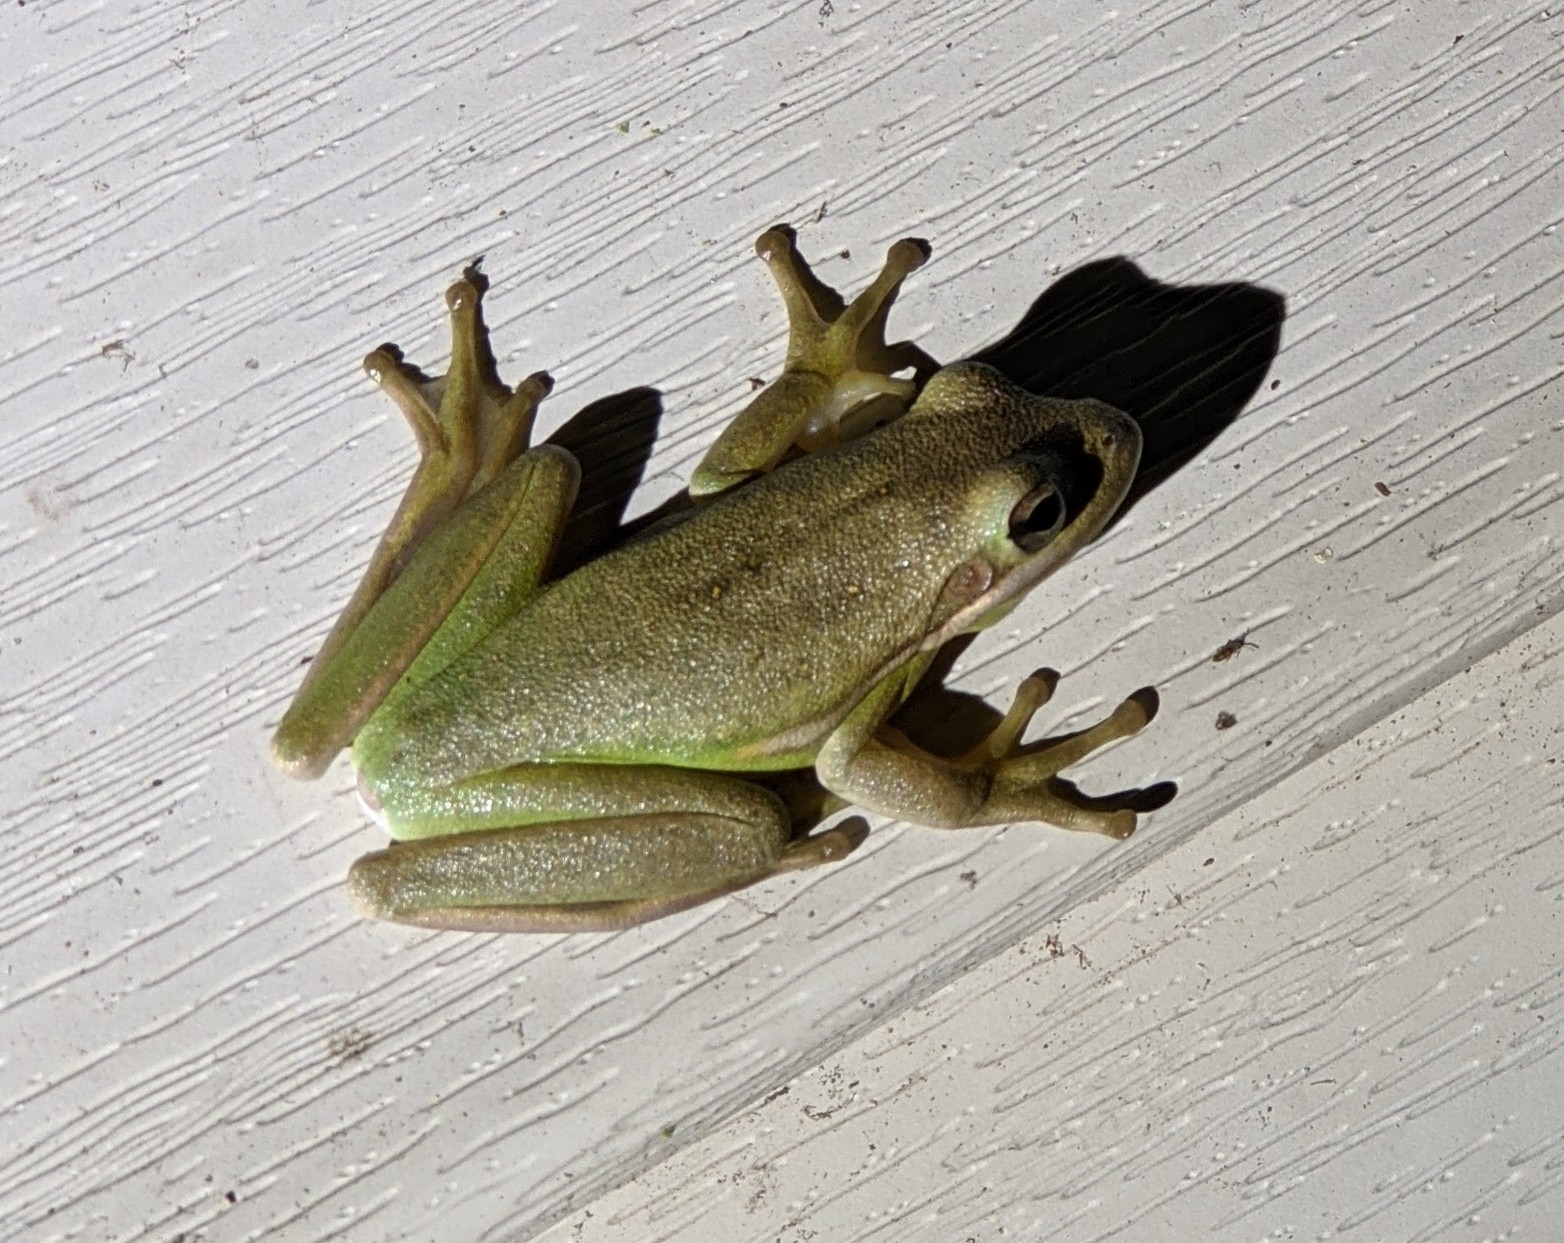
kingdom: Animalia
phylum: Chordata
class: Amphibia
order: Anura
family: Hylidae
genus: Dryophytes
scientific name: Dryophytes cinereus
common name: Green treefrog
